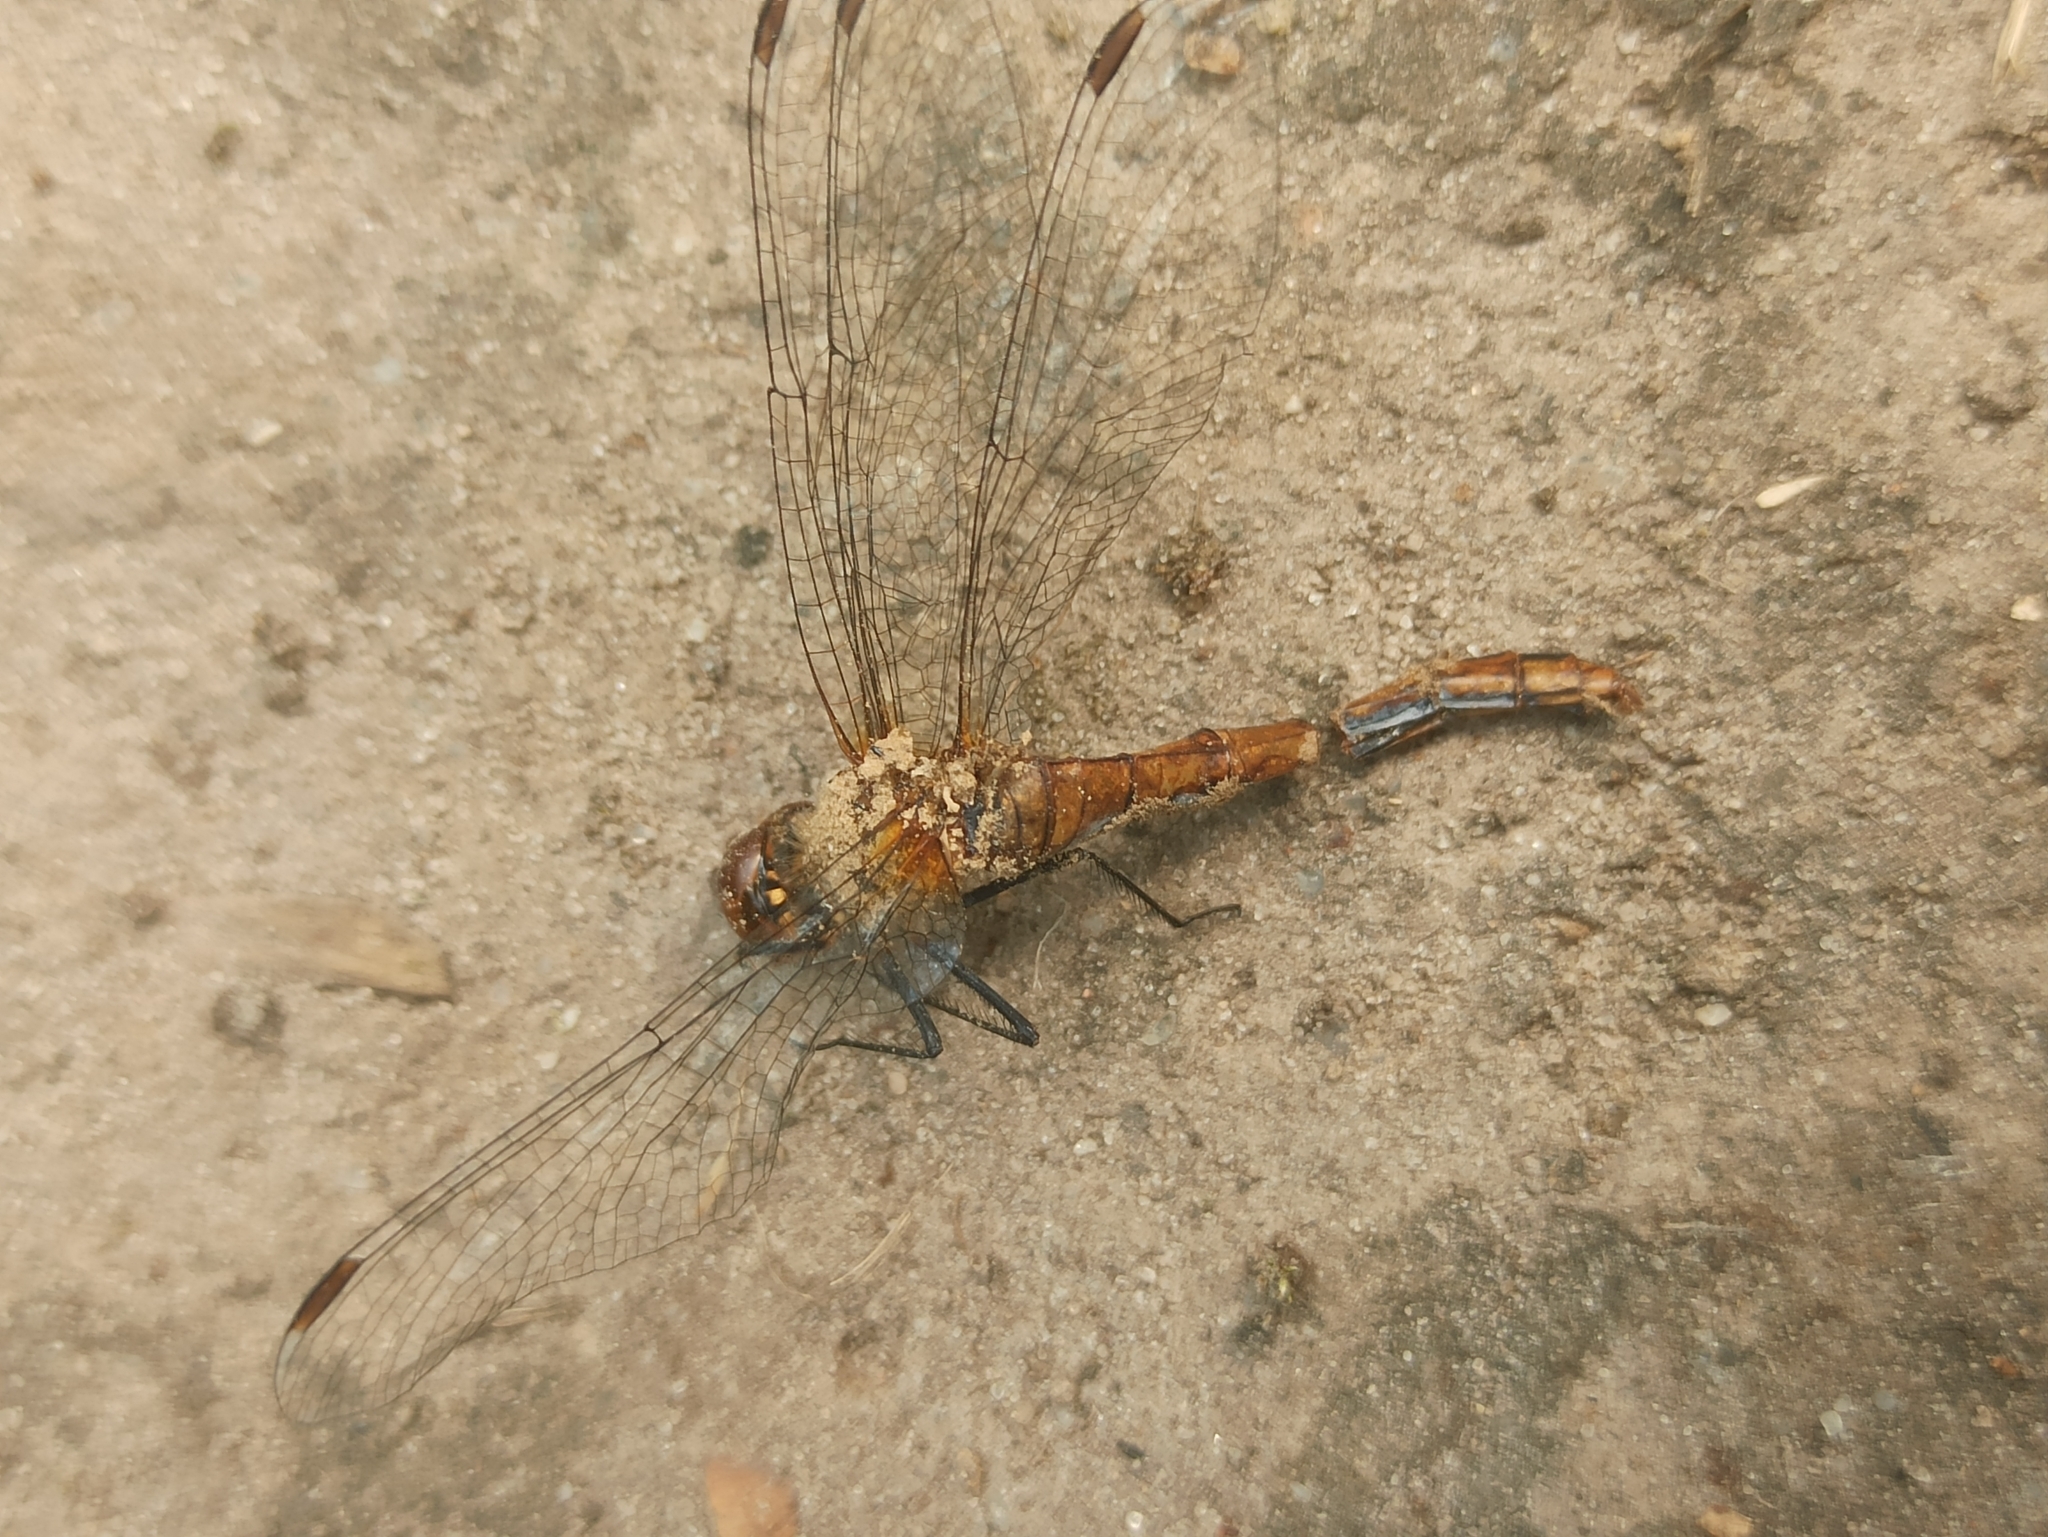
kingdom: Animalia
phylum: Arthropoda
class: Insecta
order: Odonata
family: Libellulidae
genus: Sympetrum
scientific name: Sympetrum sanguineum
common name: Ruddy darter
